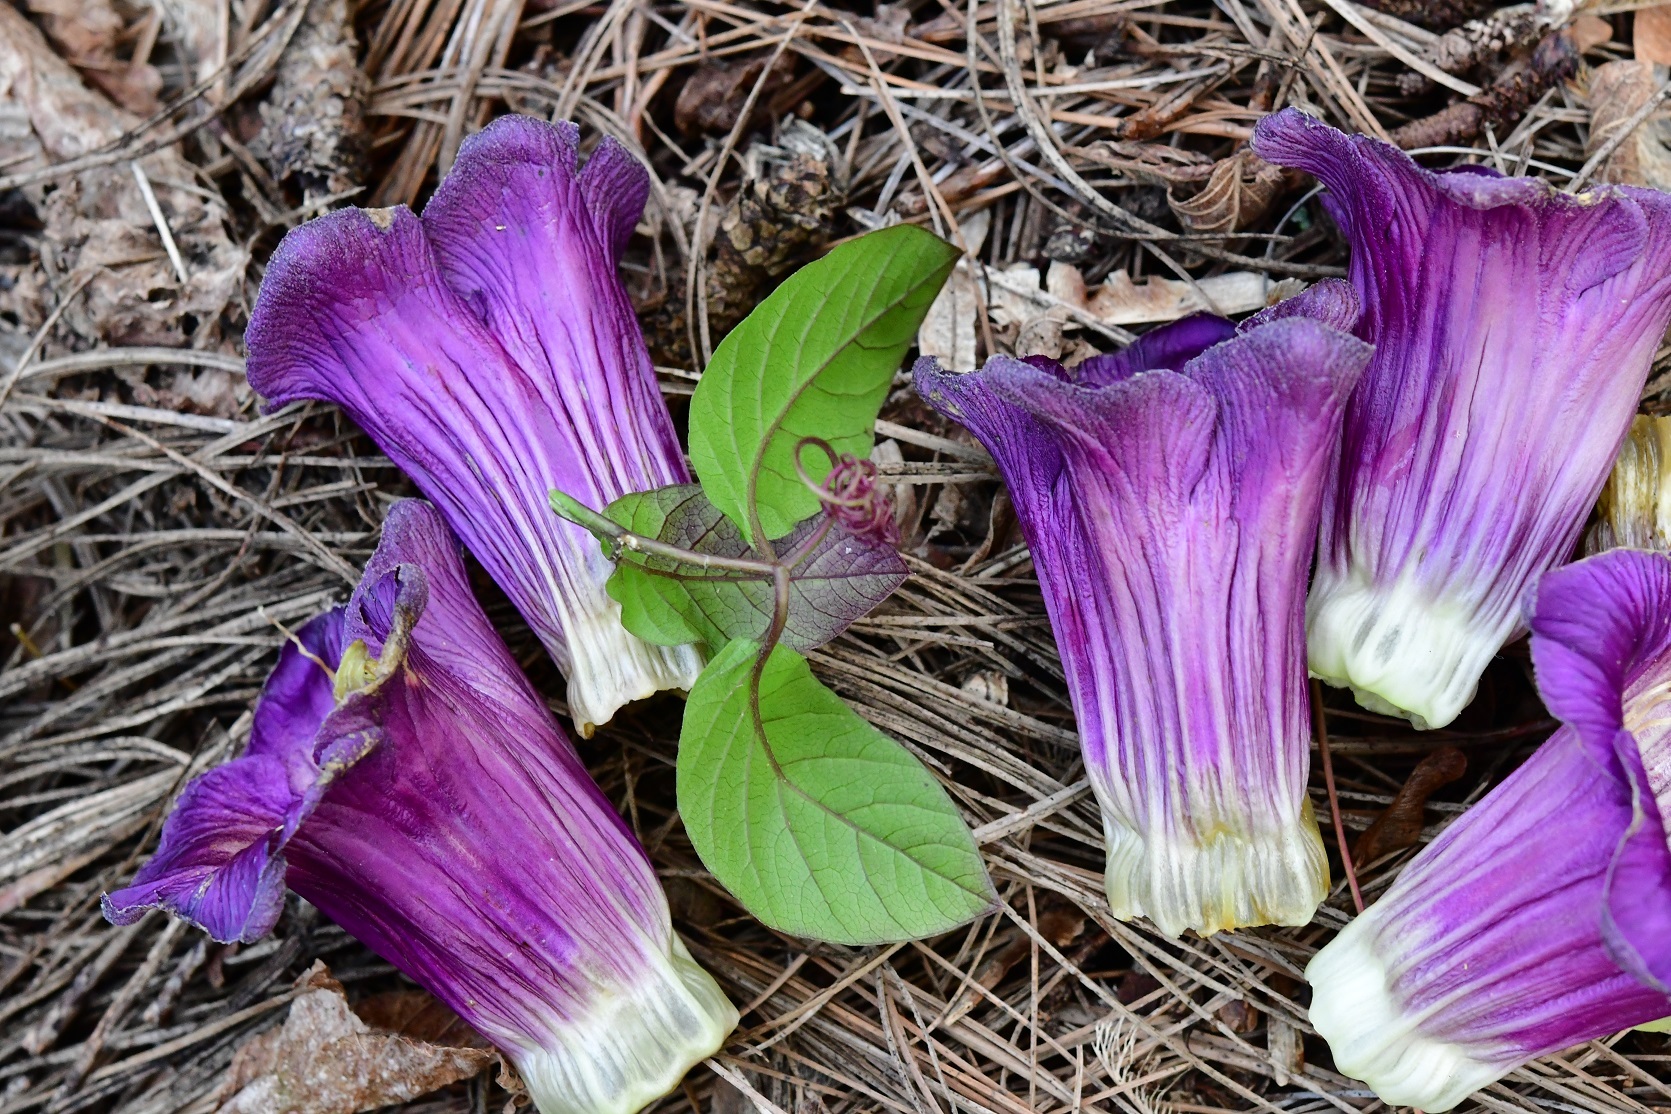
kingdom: Plantae
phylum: Tracheophyta
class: Magnoliopsida
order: Ericales
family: Polemoniaceae
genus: Cobaea
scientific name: Cobaea scandens
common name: Cup-and-saucer-vine
